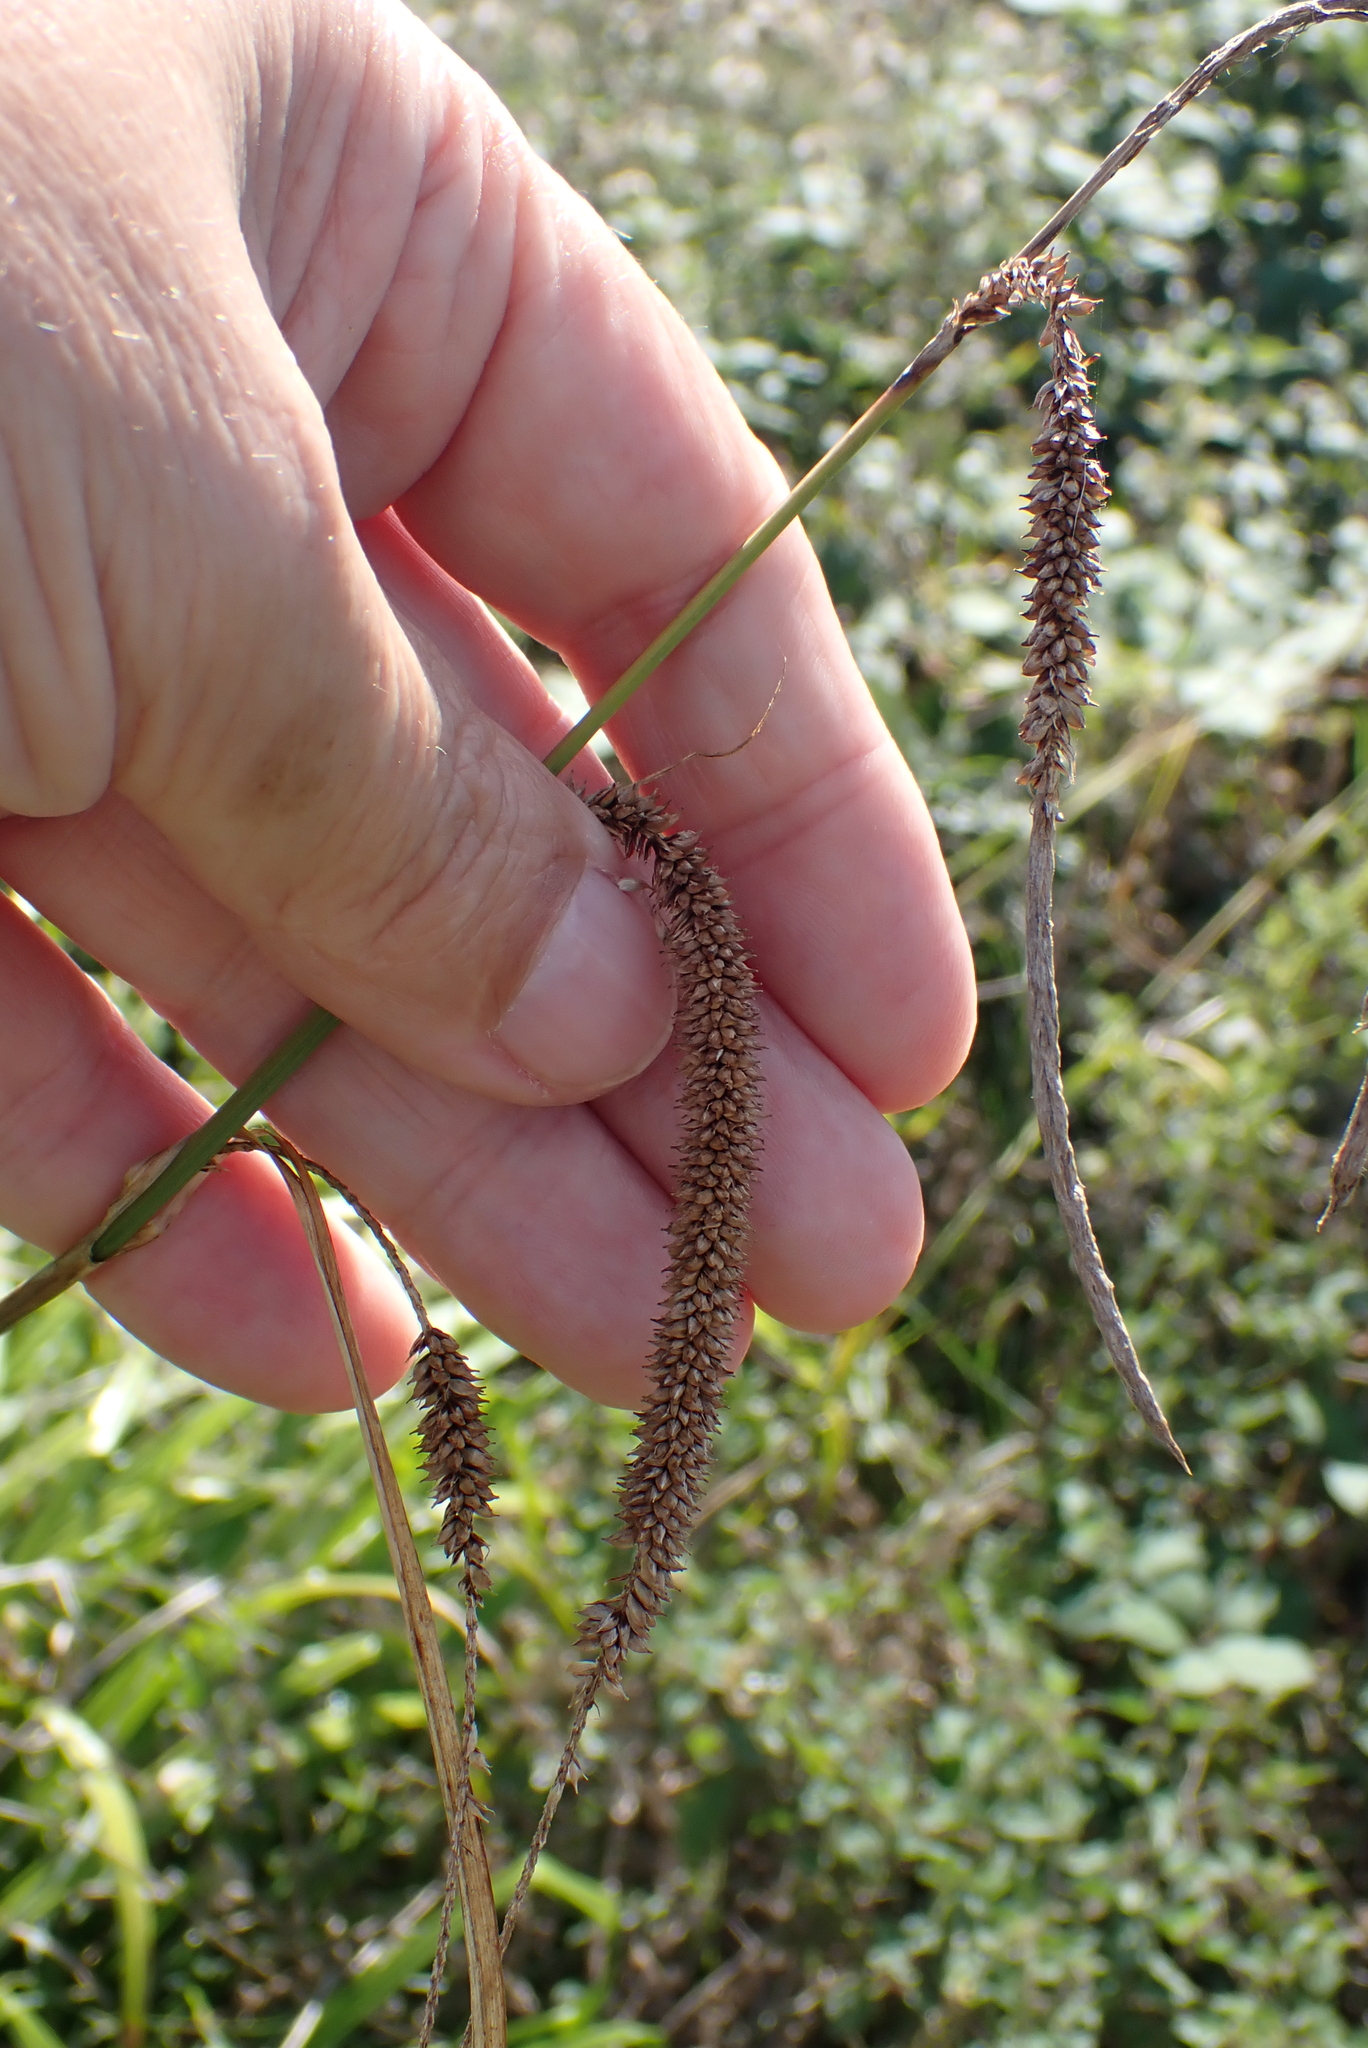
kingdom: Plantae
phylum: Tracheophyta
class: Liliopsida
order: Poales
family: Cyperaceae
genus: Carex
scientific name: Carex pendula
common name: Pendulous sedge
